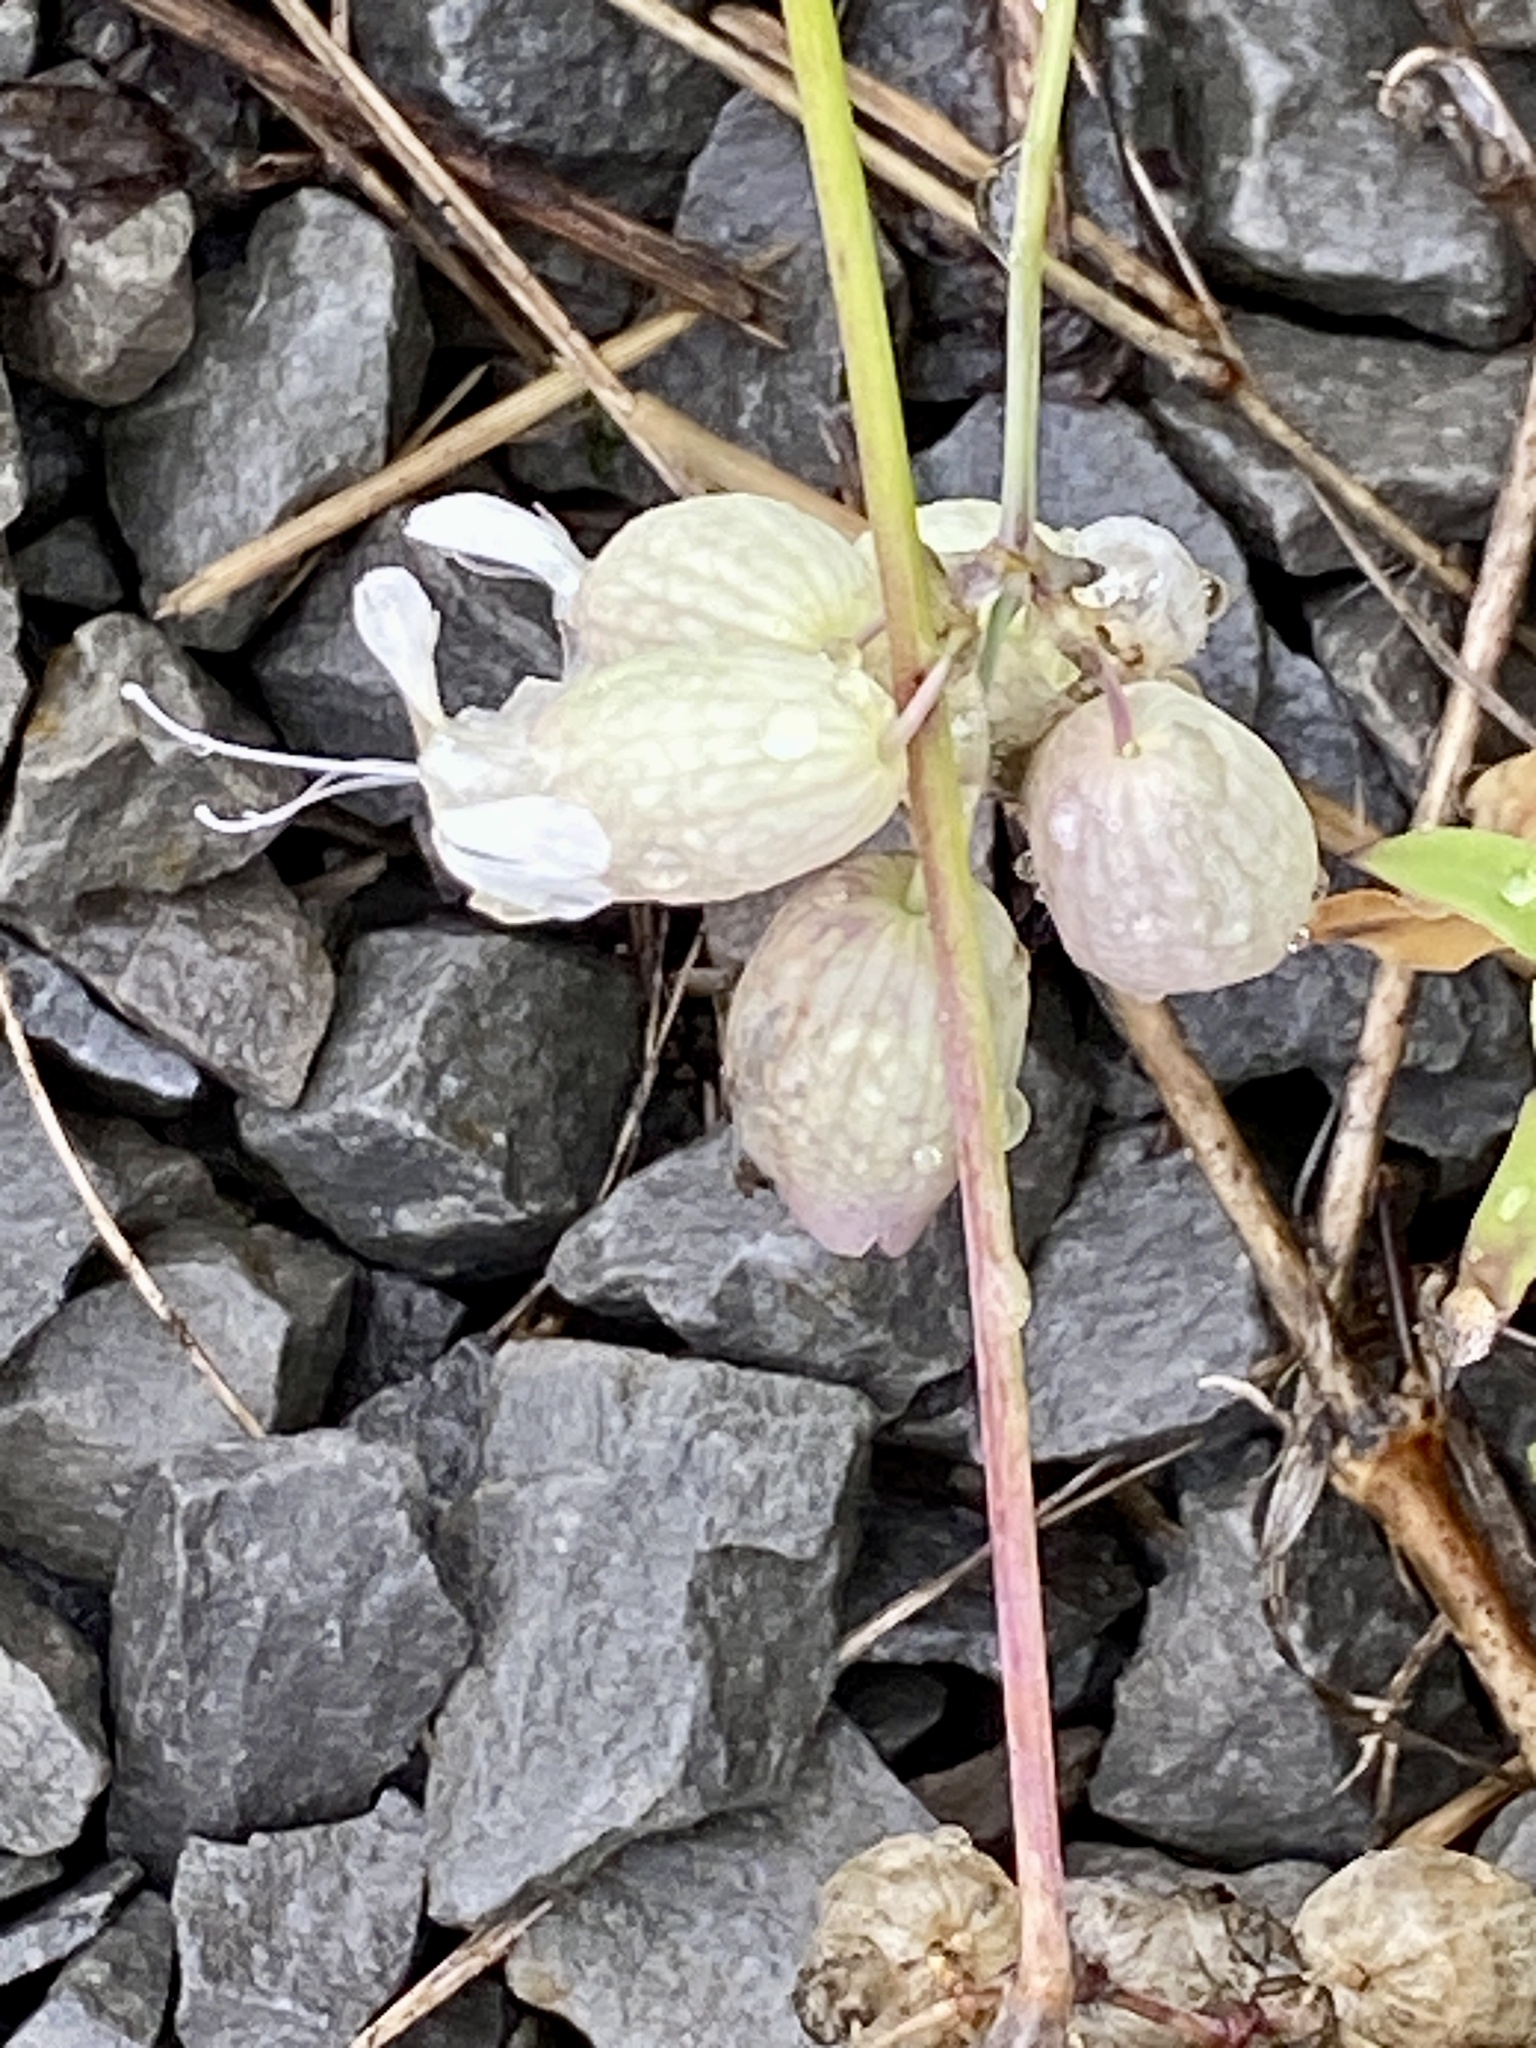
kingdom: Plantae
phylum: Tracheophyta
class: Magnoliopsida
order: Caryophyllales
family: Caryophyllaceae
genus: Silene
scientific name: Silene vulgaris
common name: Bladder campion
